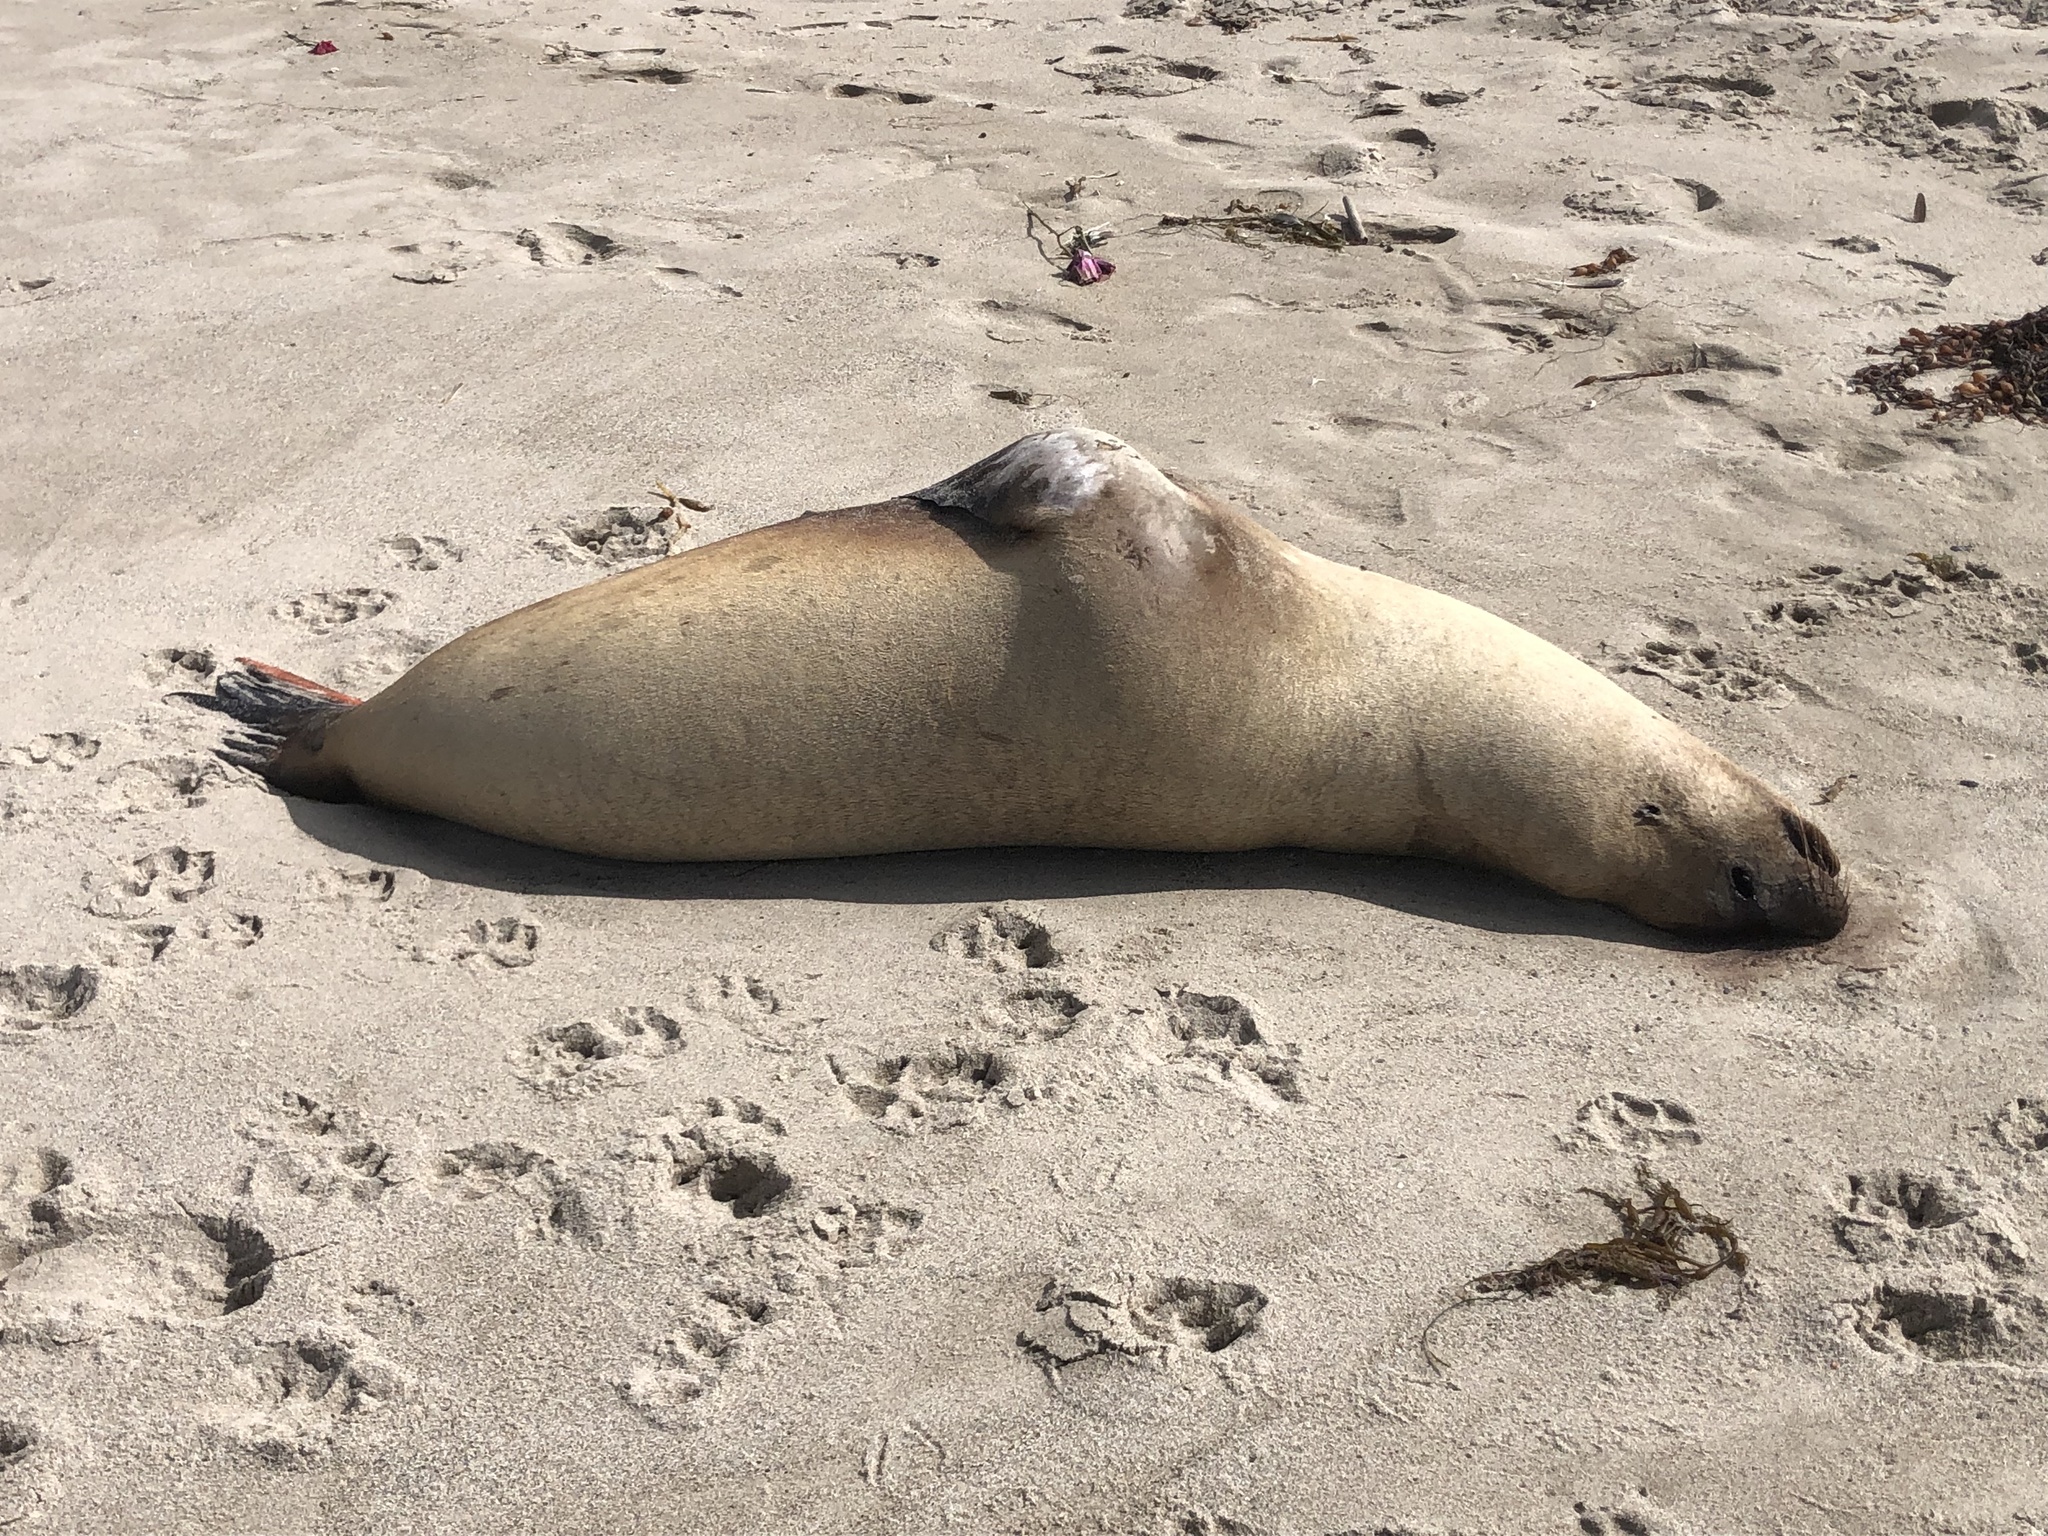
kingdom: Animalia
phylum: Chordata
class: Mammalia
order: Carnivora
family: Otariidae
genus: Zalophus
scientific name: Zalophus californianus
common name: California sea lion
